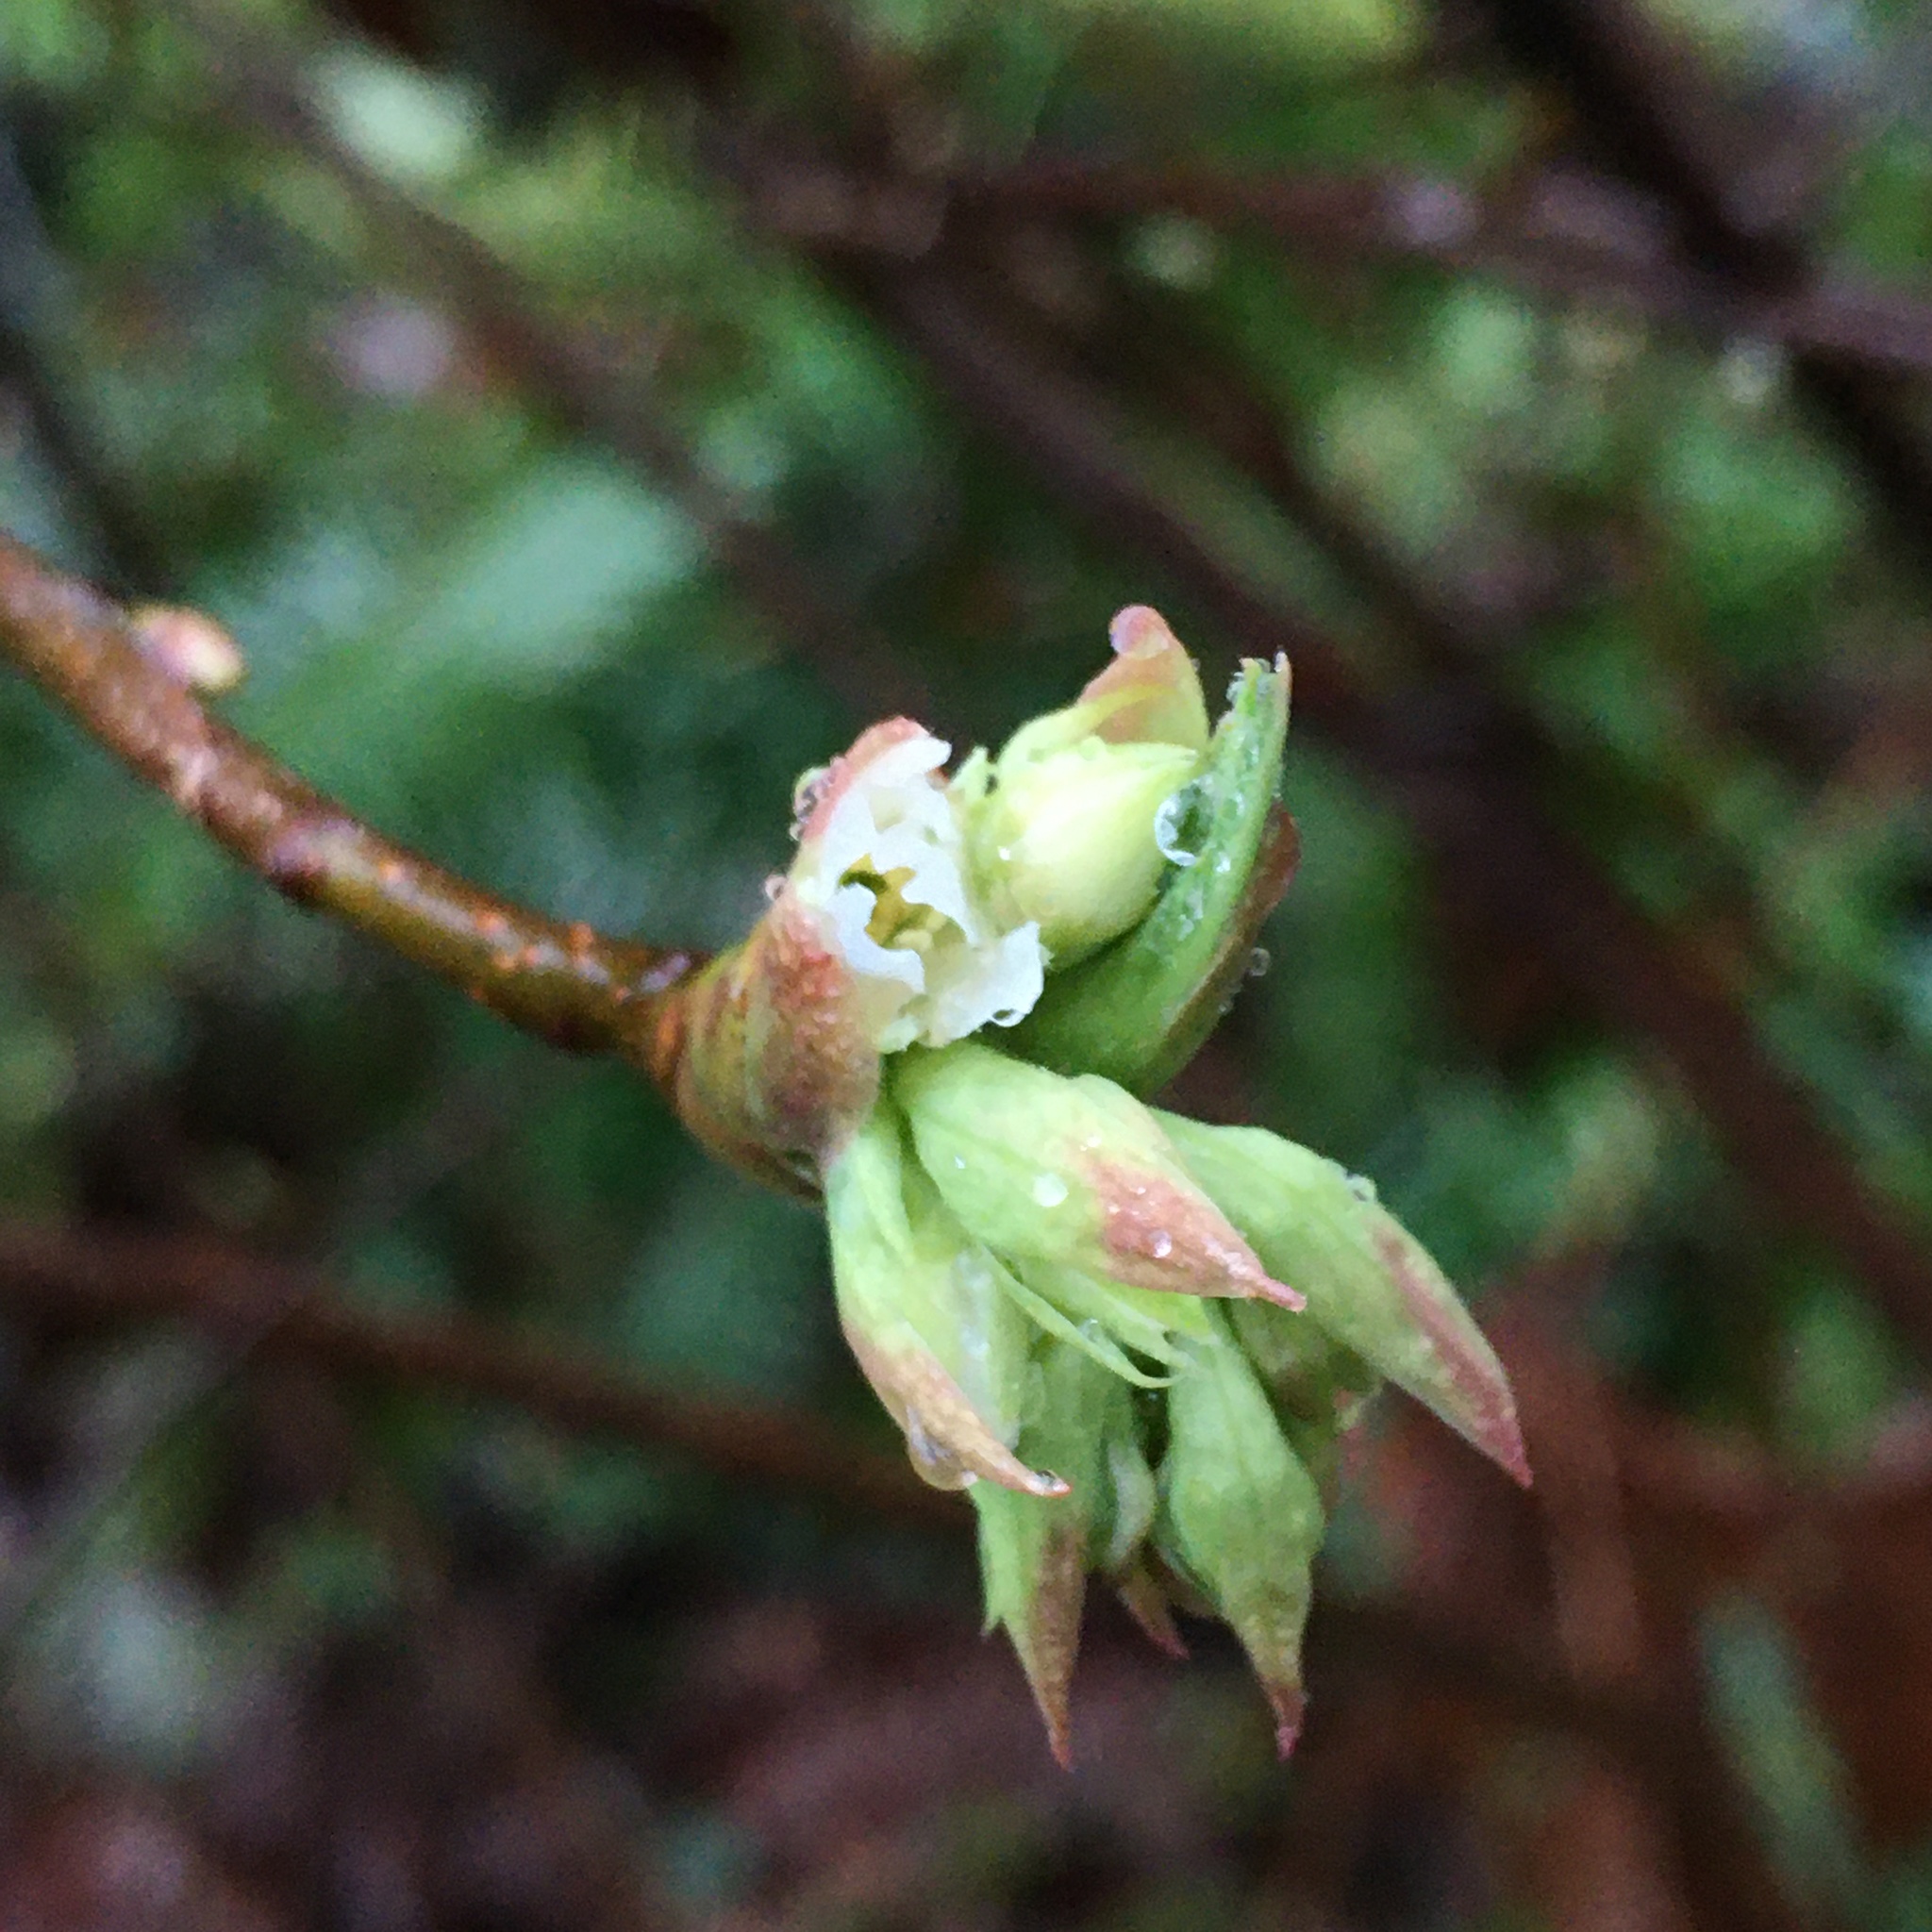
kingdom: Plantae
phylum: Tracheophyta
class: Magnoliopsida
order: Rosales
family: Rosaceae
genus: Oemleria
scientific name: Oemleria cerasiformis
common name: Osoberry
